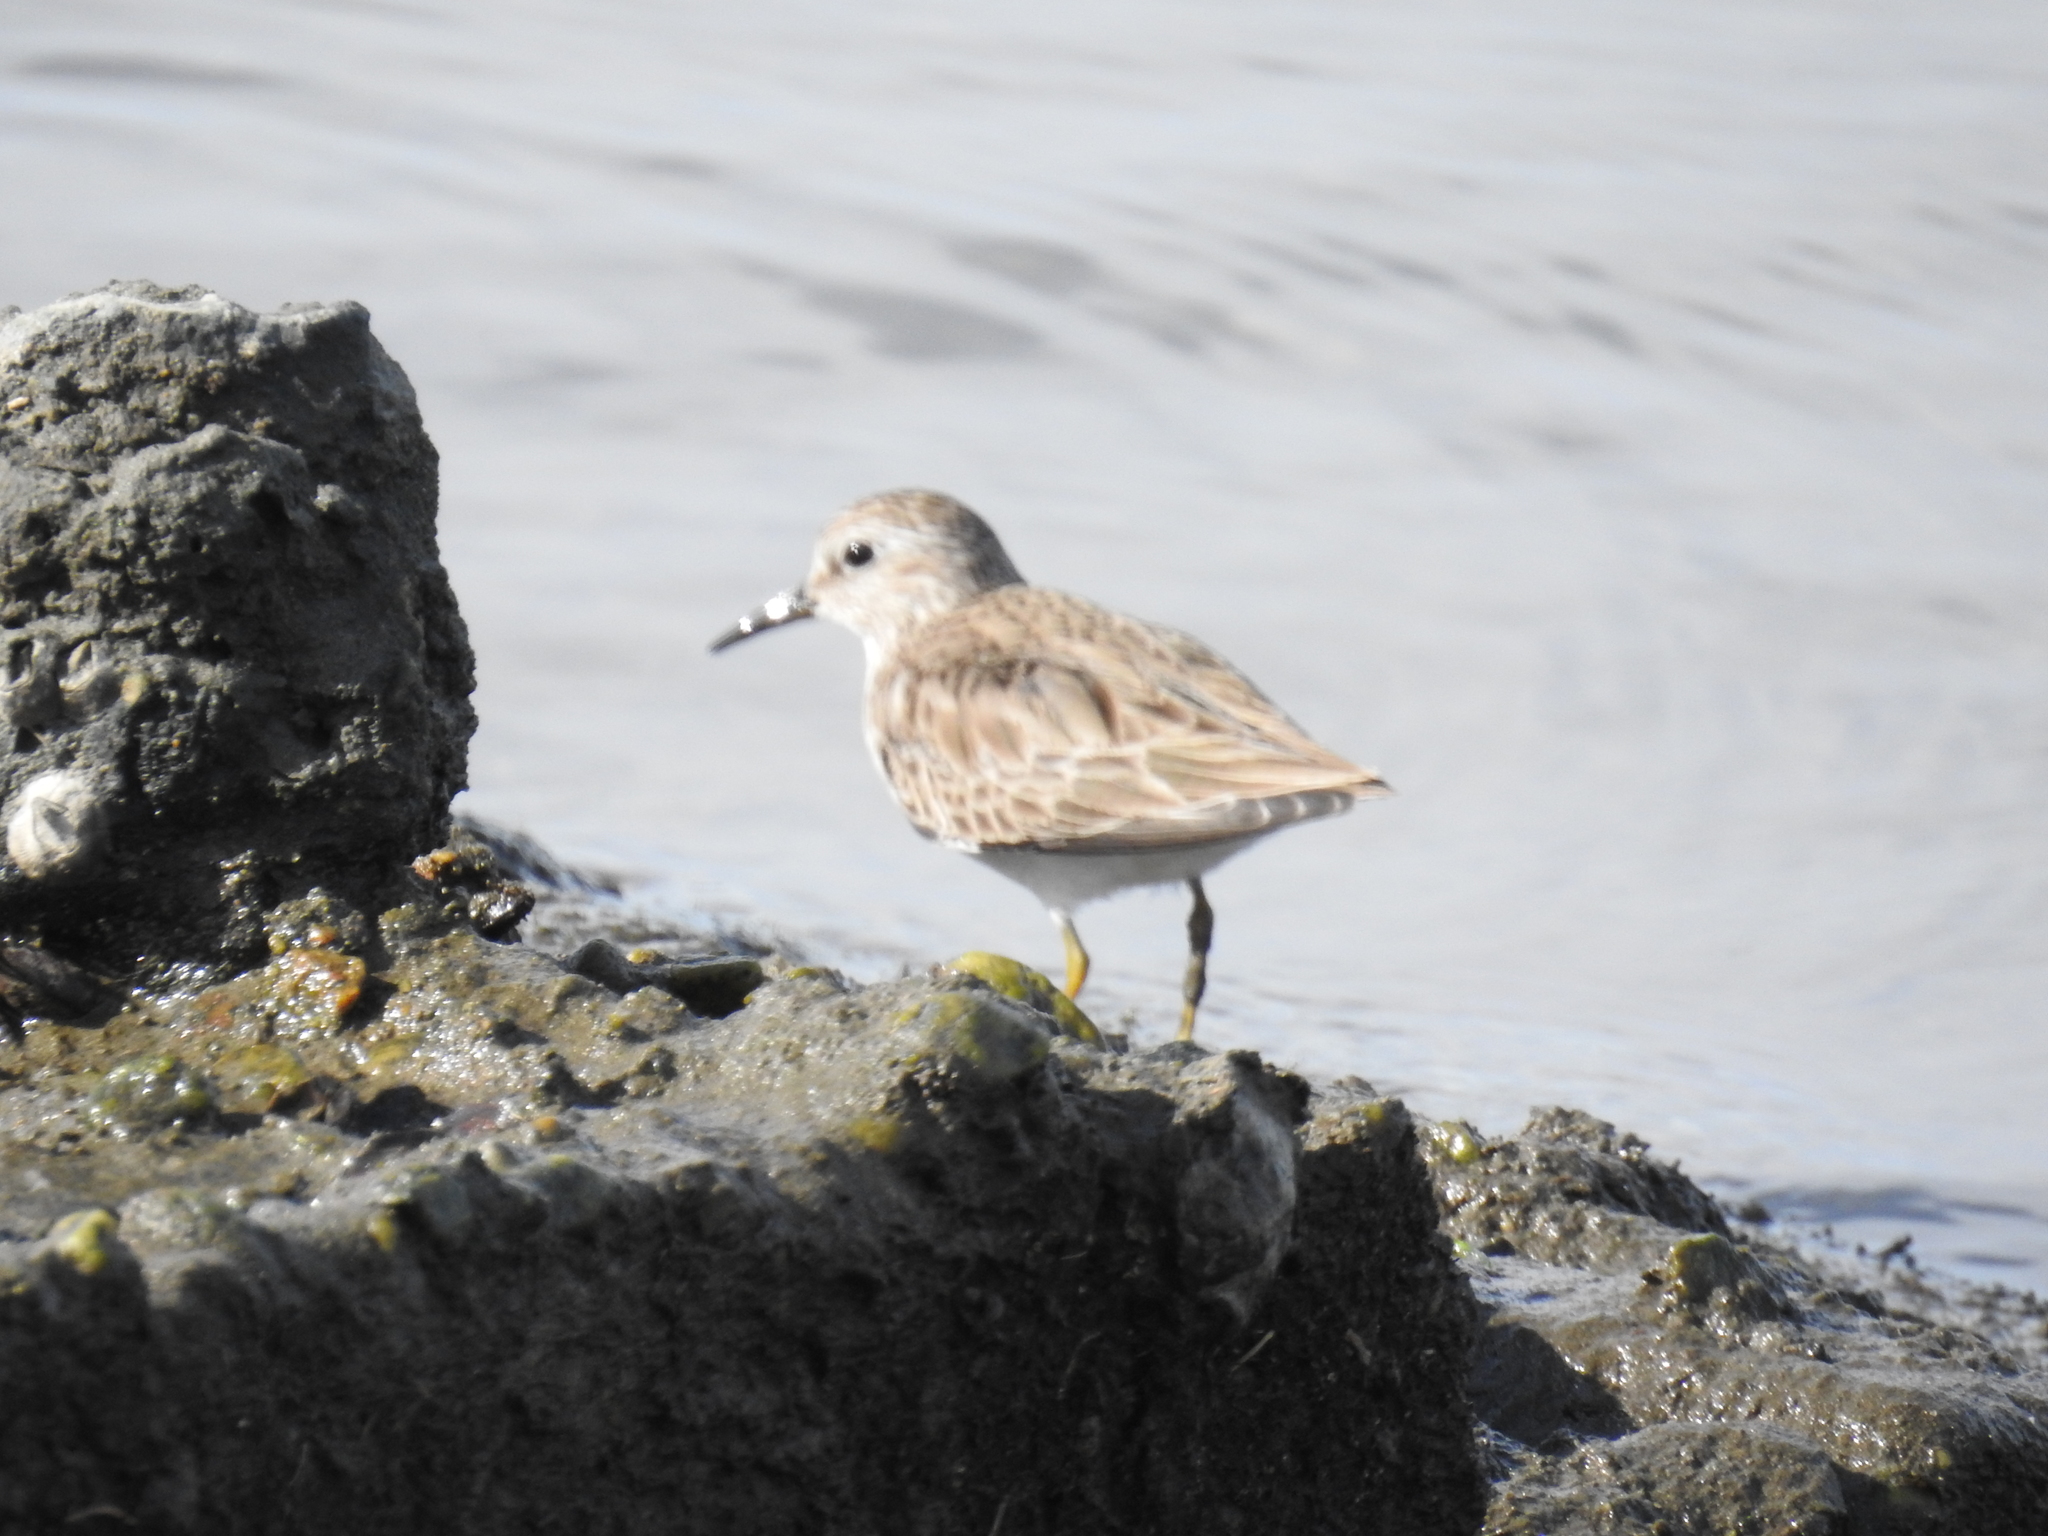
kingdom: Animalia
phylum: Chordata
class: Aves
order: Charadriiformes
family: Scolopacidae
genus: Calidris
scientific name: Calidris minutilla
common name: Least sandpiper
